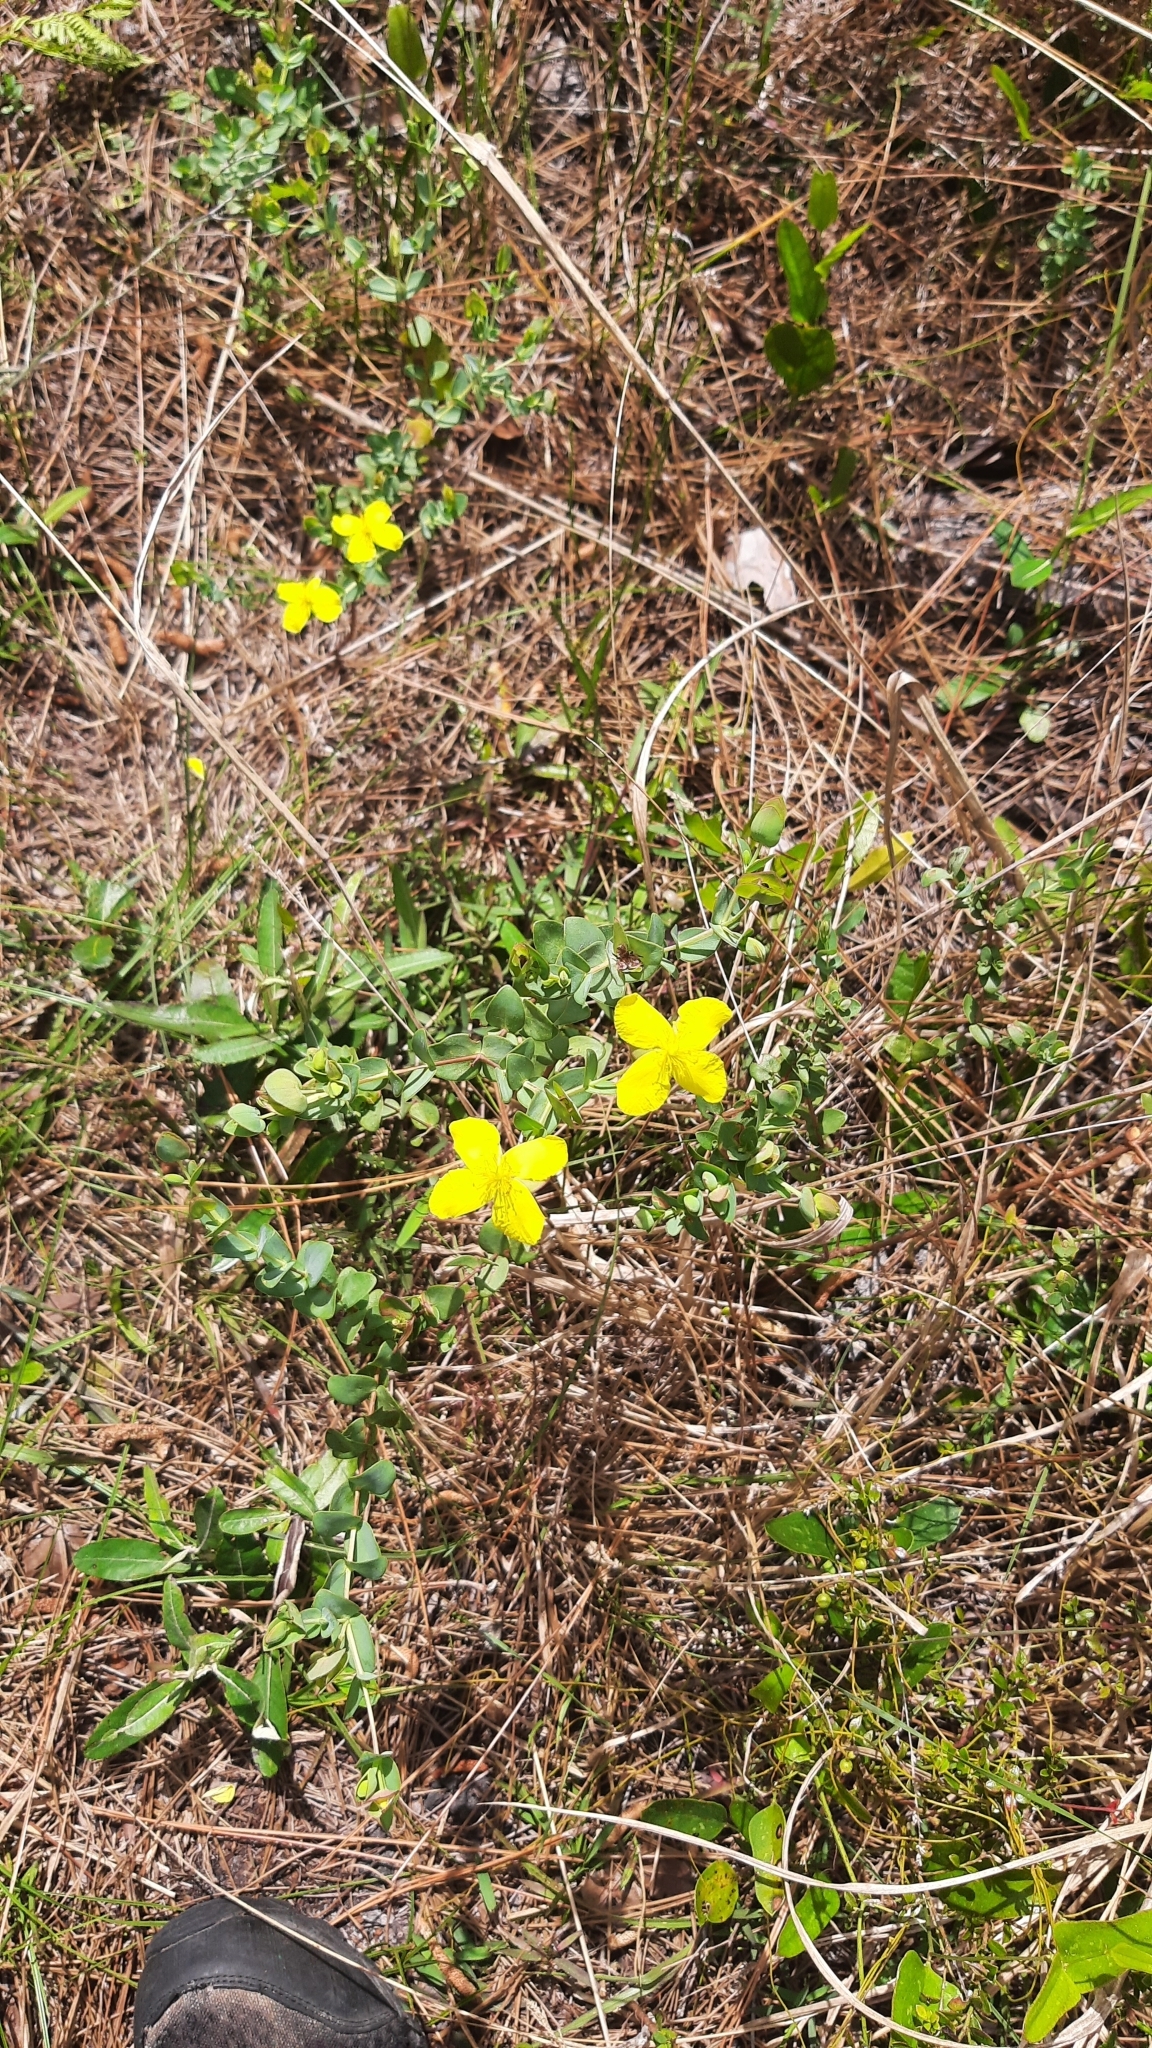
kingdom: Plantae
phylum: Tracheophyta
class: Magnoliopsida
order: Malpighiales
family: Hypericaceae
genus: Hypericum
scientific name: Hypericum tetrapetalum
